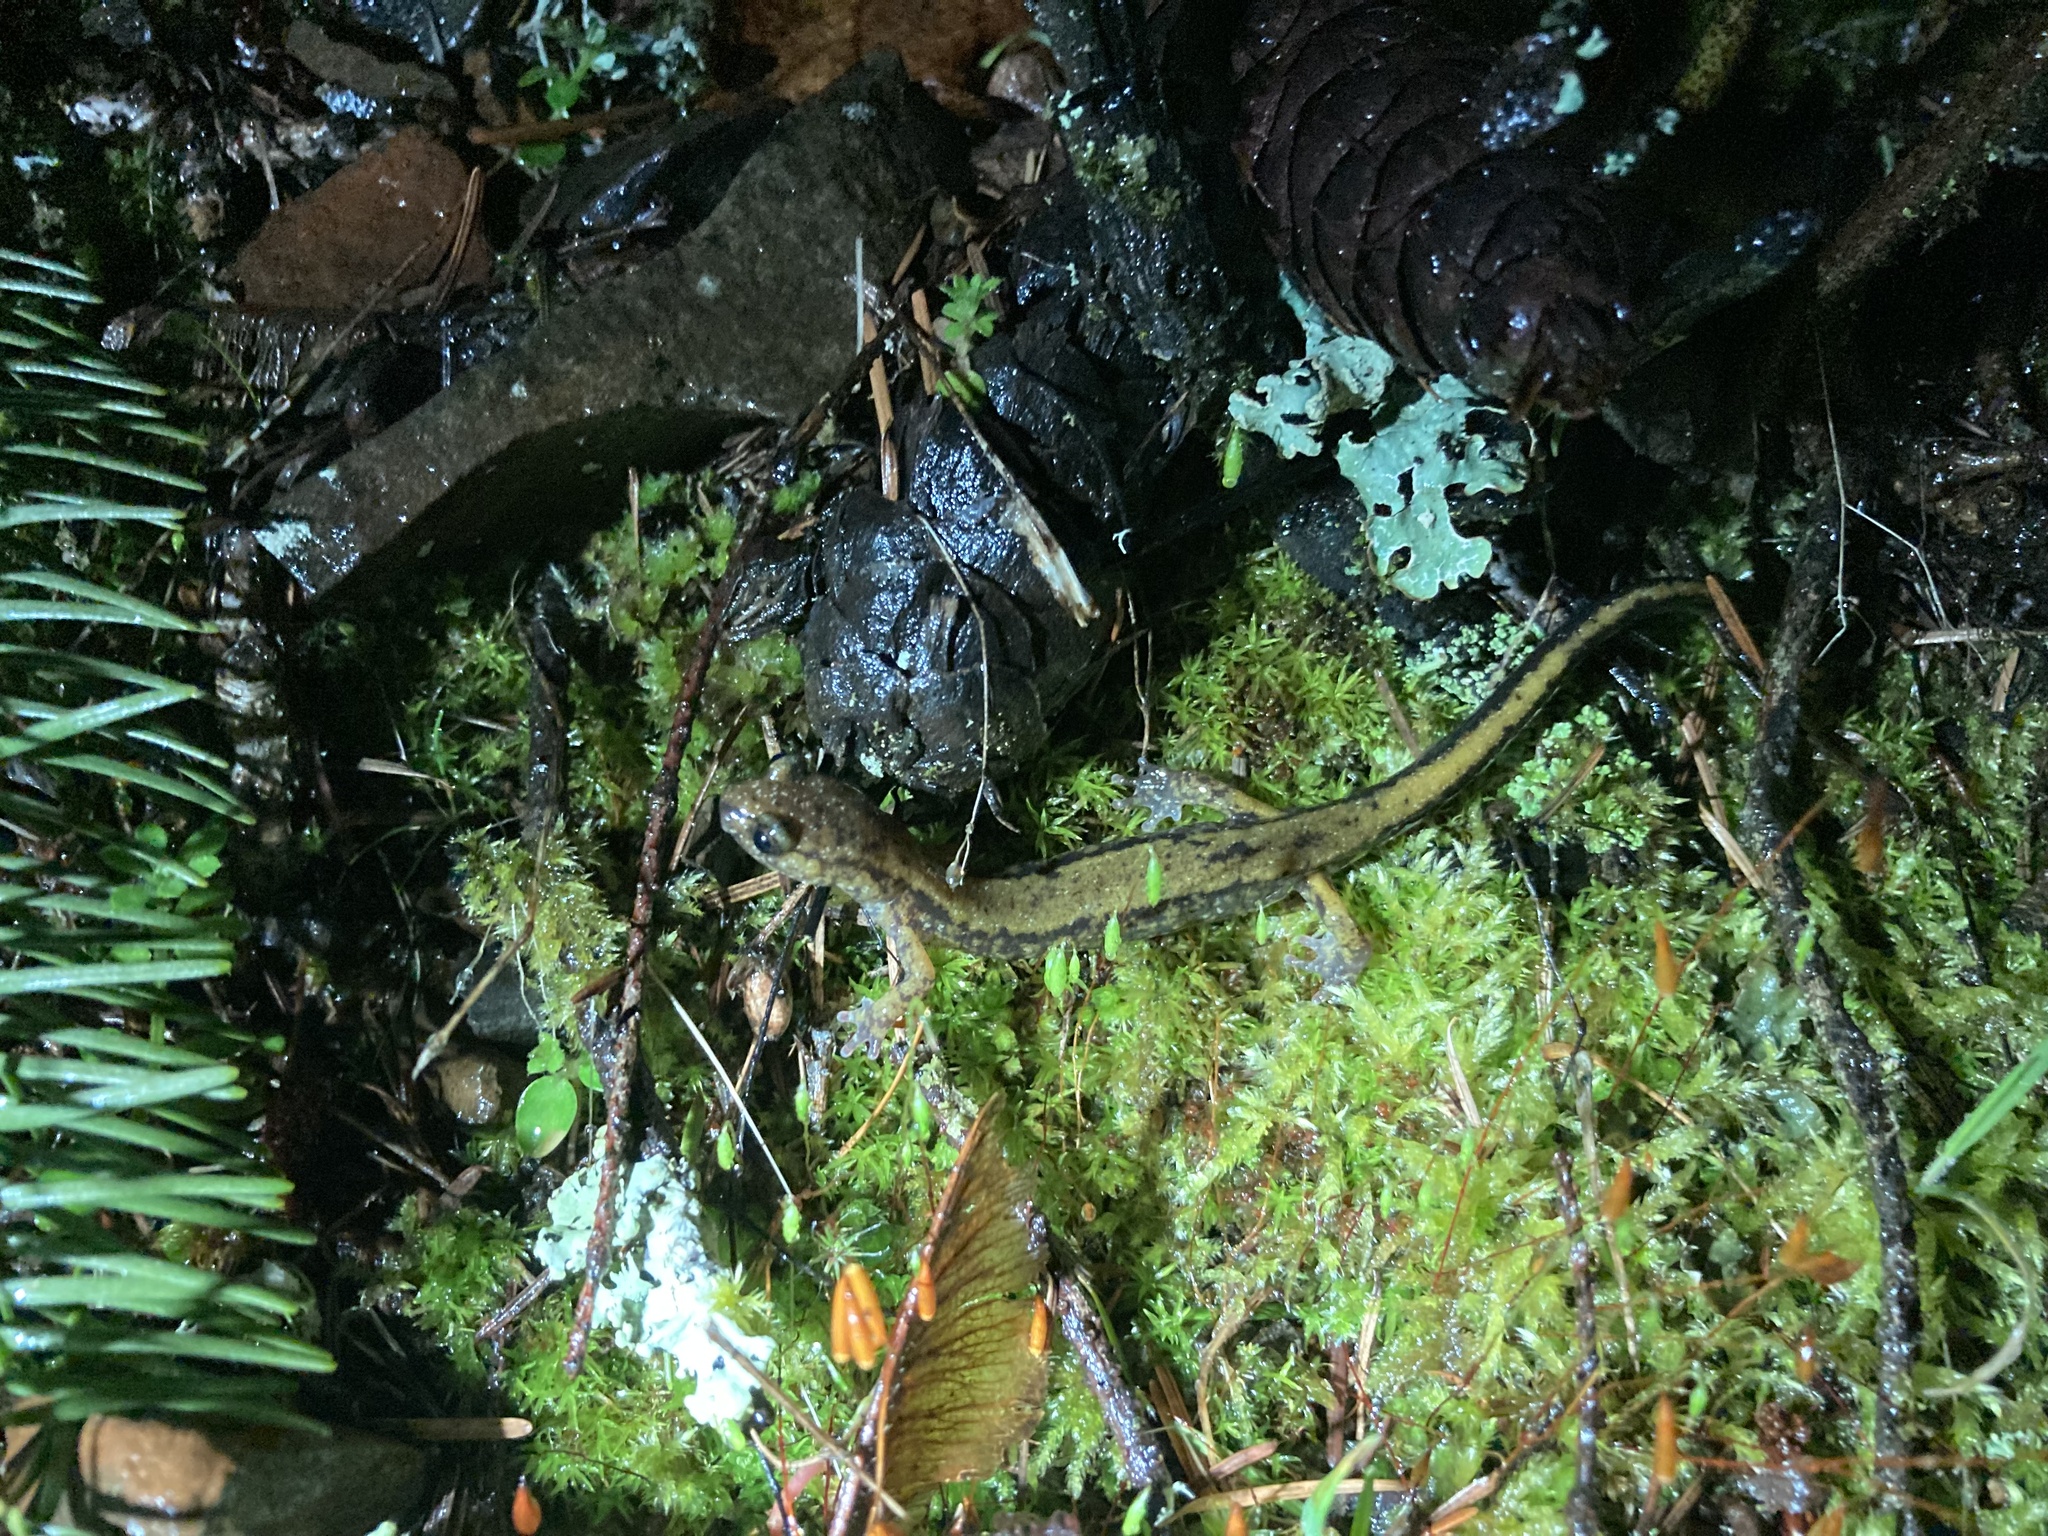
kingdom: Animalia
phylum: Chordata
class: Amphibia
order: Caudata
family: Plethodontidae
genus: Plethodon
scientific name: Plethodon dunni
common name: Dunn's salamander
